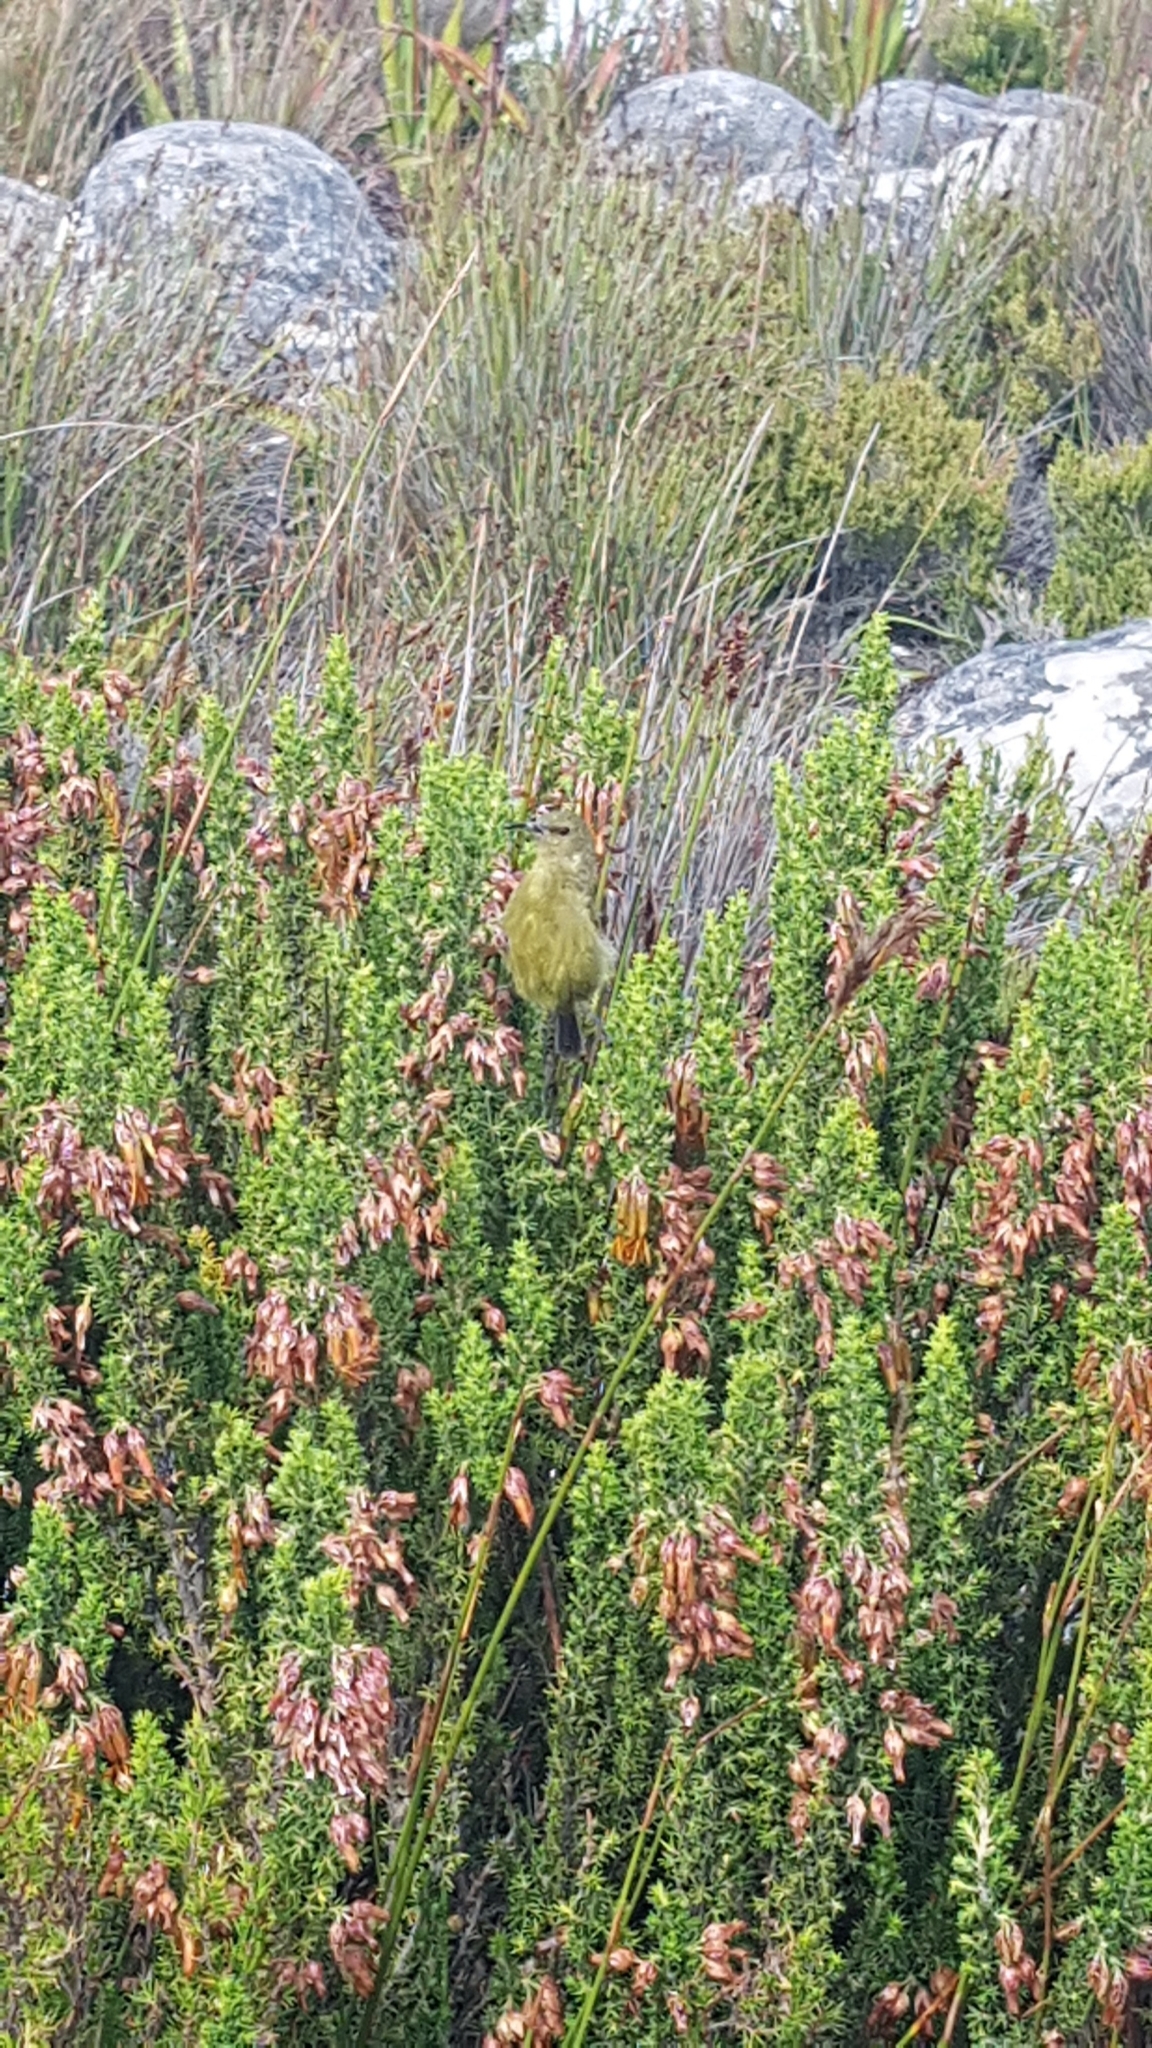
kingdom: Animalia
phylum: Chordata
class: Aves
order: Passeriformes
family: Nectariniidae
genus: Anthobaphes
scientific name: Anthobaphes violacea
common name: Orange-breasted sunbird
